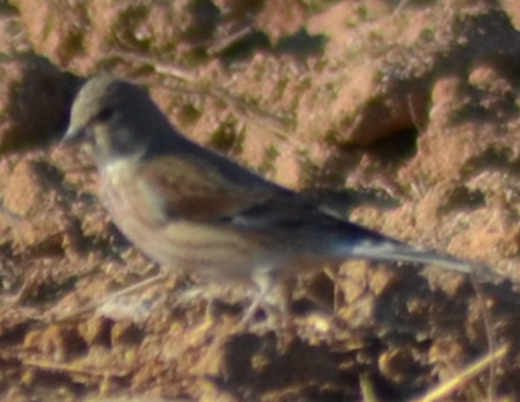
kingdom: Animalia
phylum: Chordata
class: Aves
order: Passeriformes
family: Fringillidae
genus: Linaria
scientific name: Linaria cannabina
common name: Common linnet
